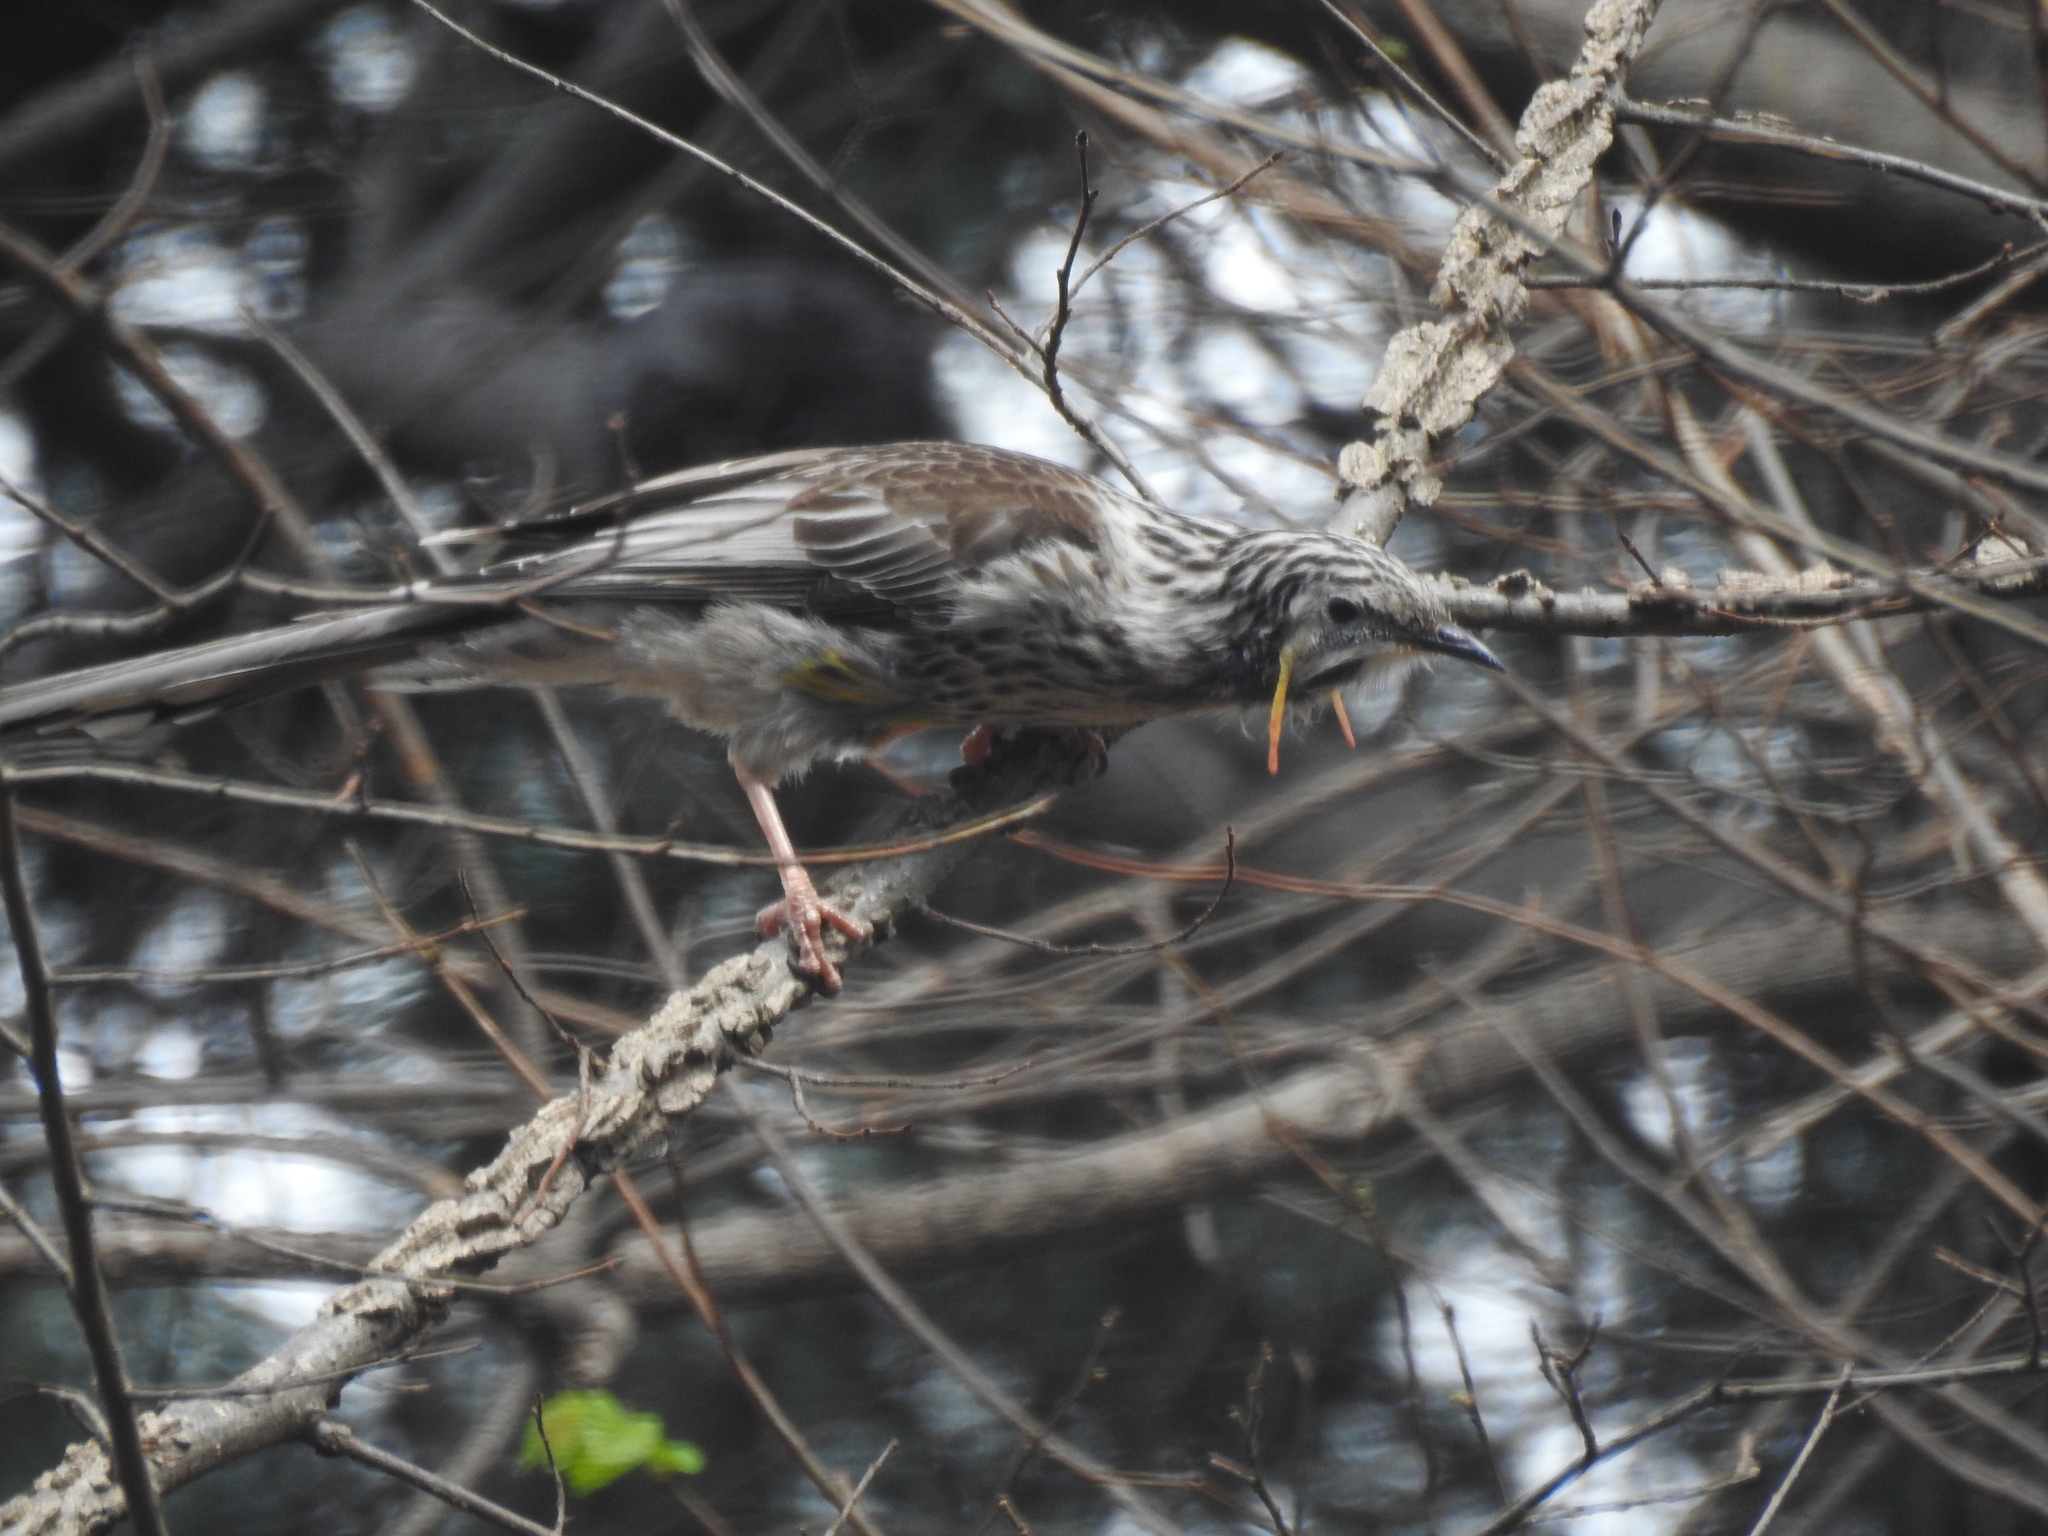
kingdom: Animalia
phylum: Chordata
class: Aves
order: Passeriformes
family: Meliphagidae
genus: Anthochaera
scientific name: Anthochaera paradoxa
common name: Yellow wattlebird
